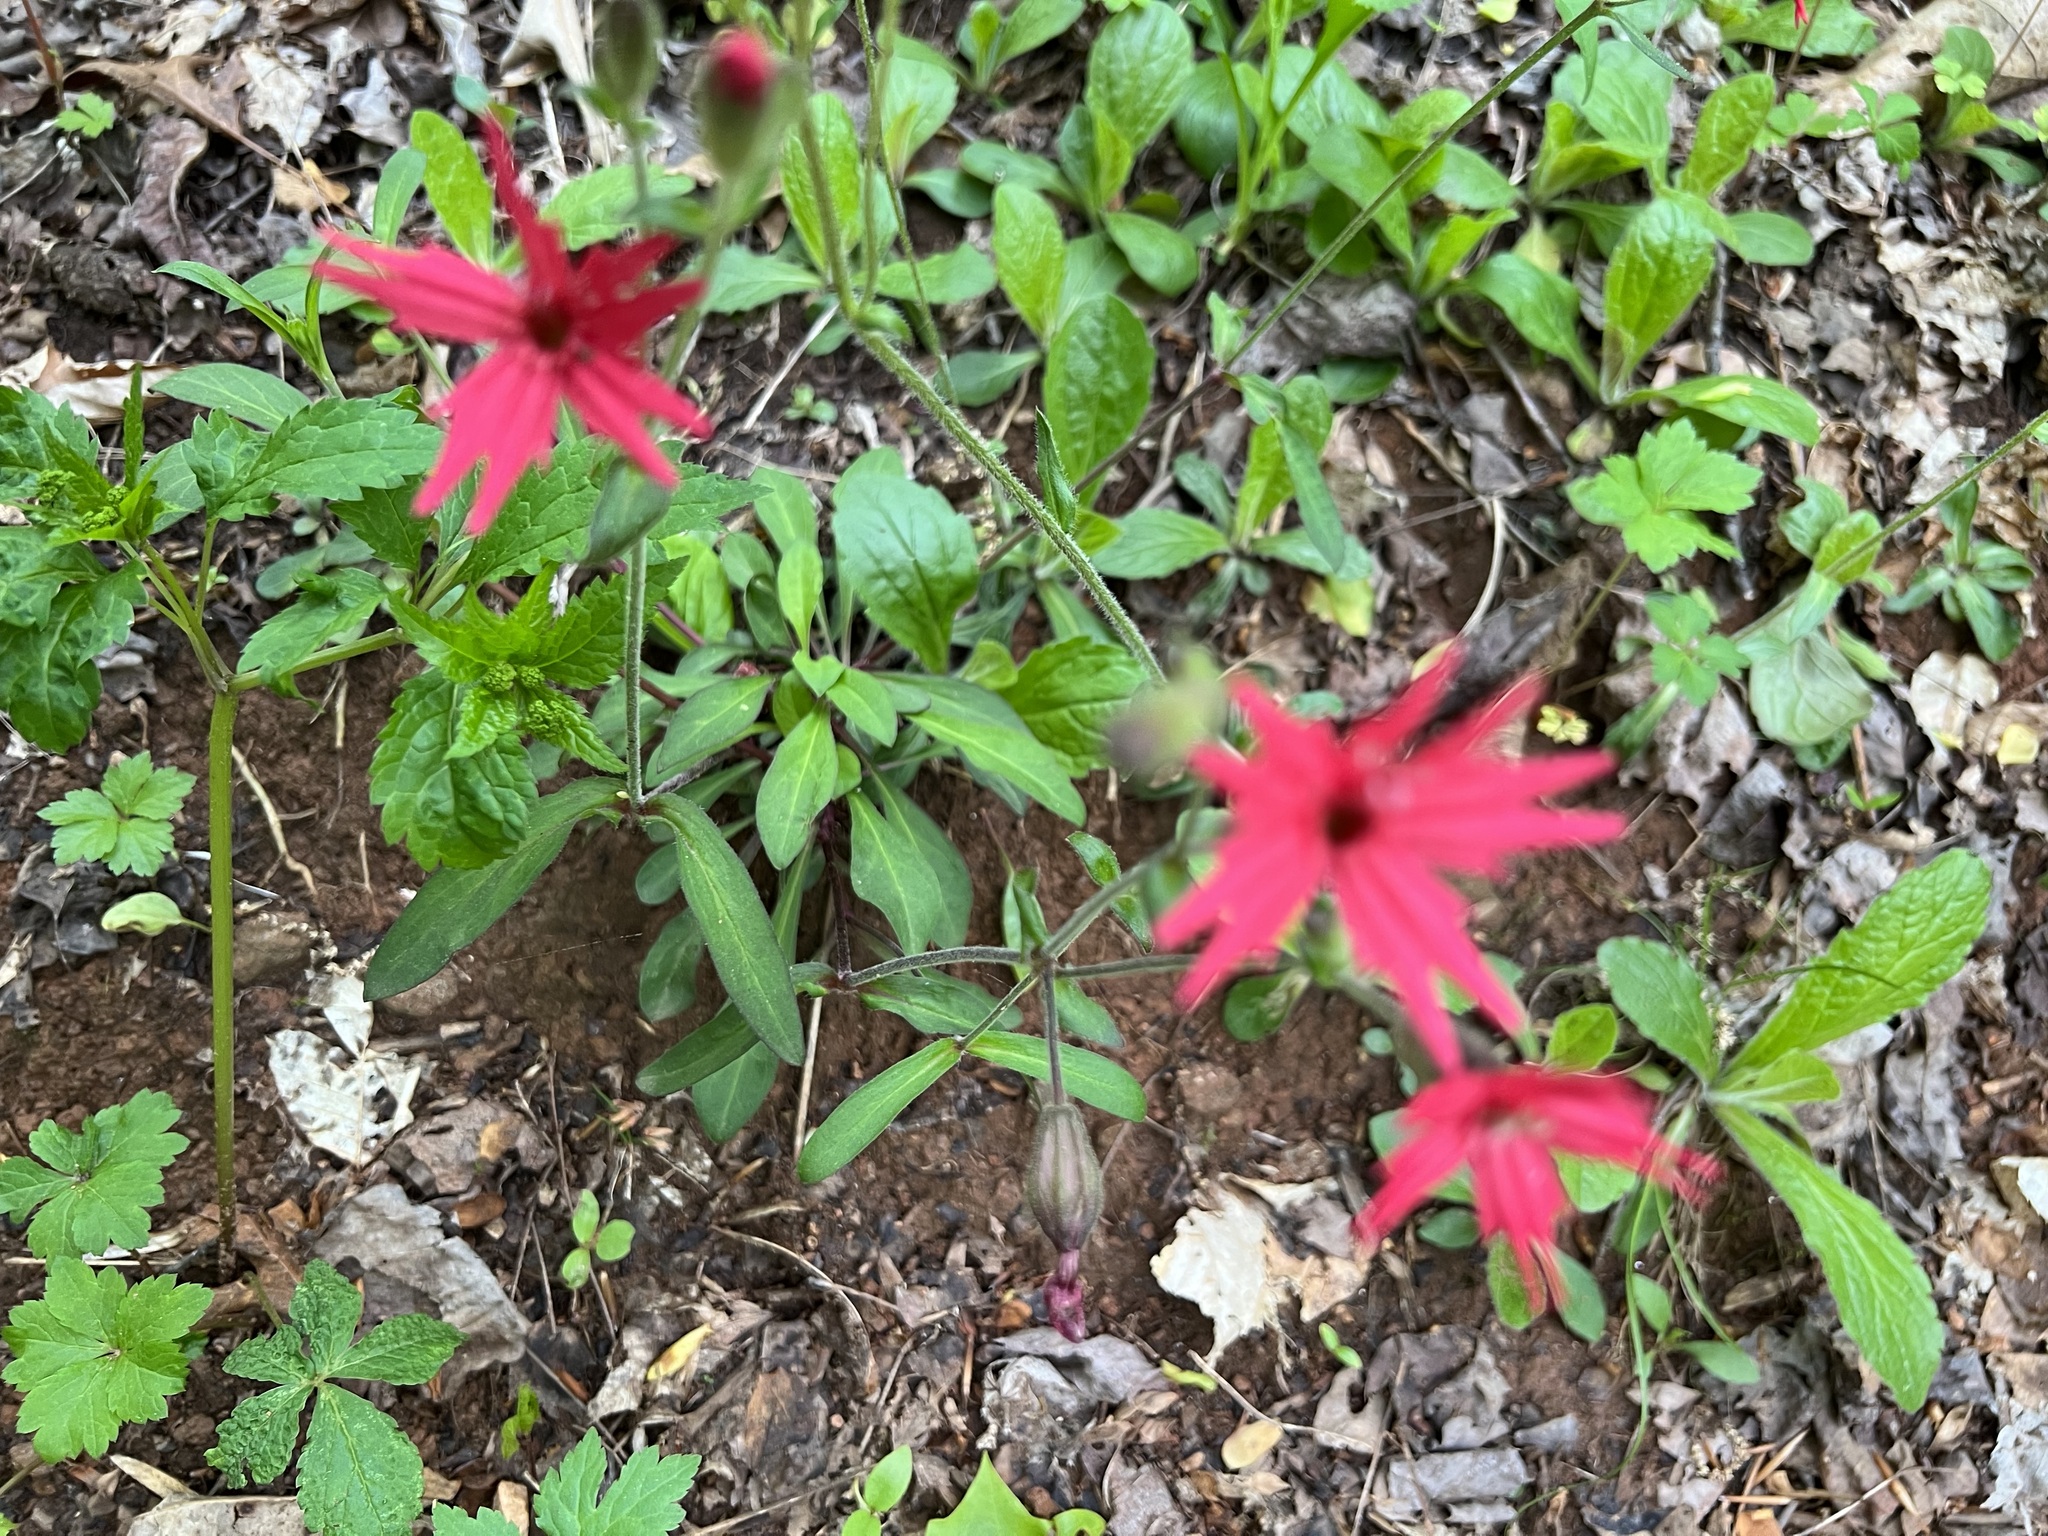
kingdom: Plantae
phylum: Tracheophyta
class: Magnoliopsida
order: Caryophyllales
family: Caryophyllaceae
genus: Silene
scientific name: Silene virginica
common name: Fire-pink
